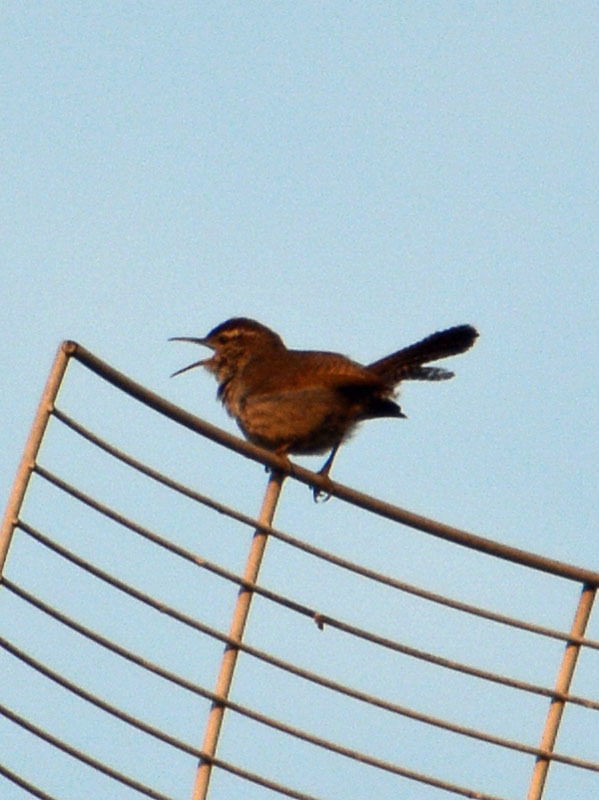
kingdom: Animalia
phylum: Chordata
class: Aves
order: Passeriformes
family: Troglodytidae
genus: Thryomanes
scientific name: Thryomanes bewickii
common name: Bewick's wren
